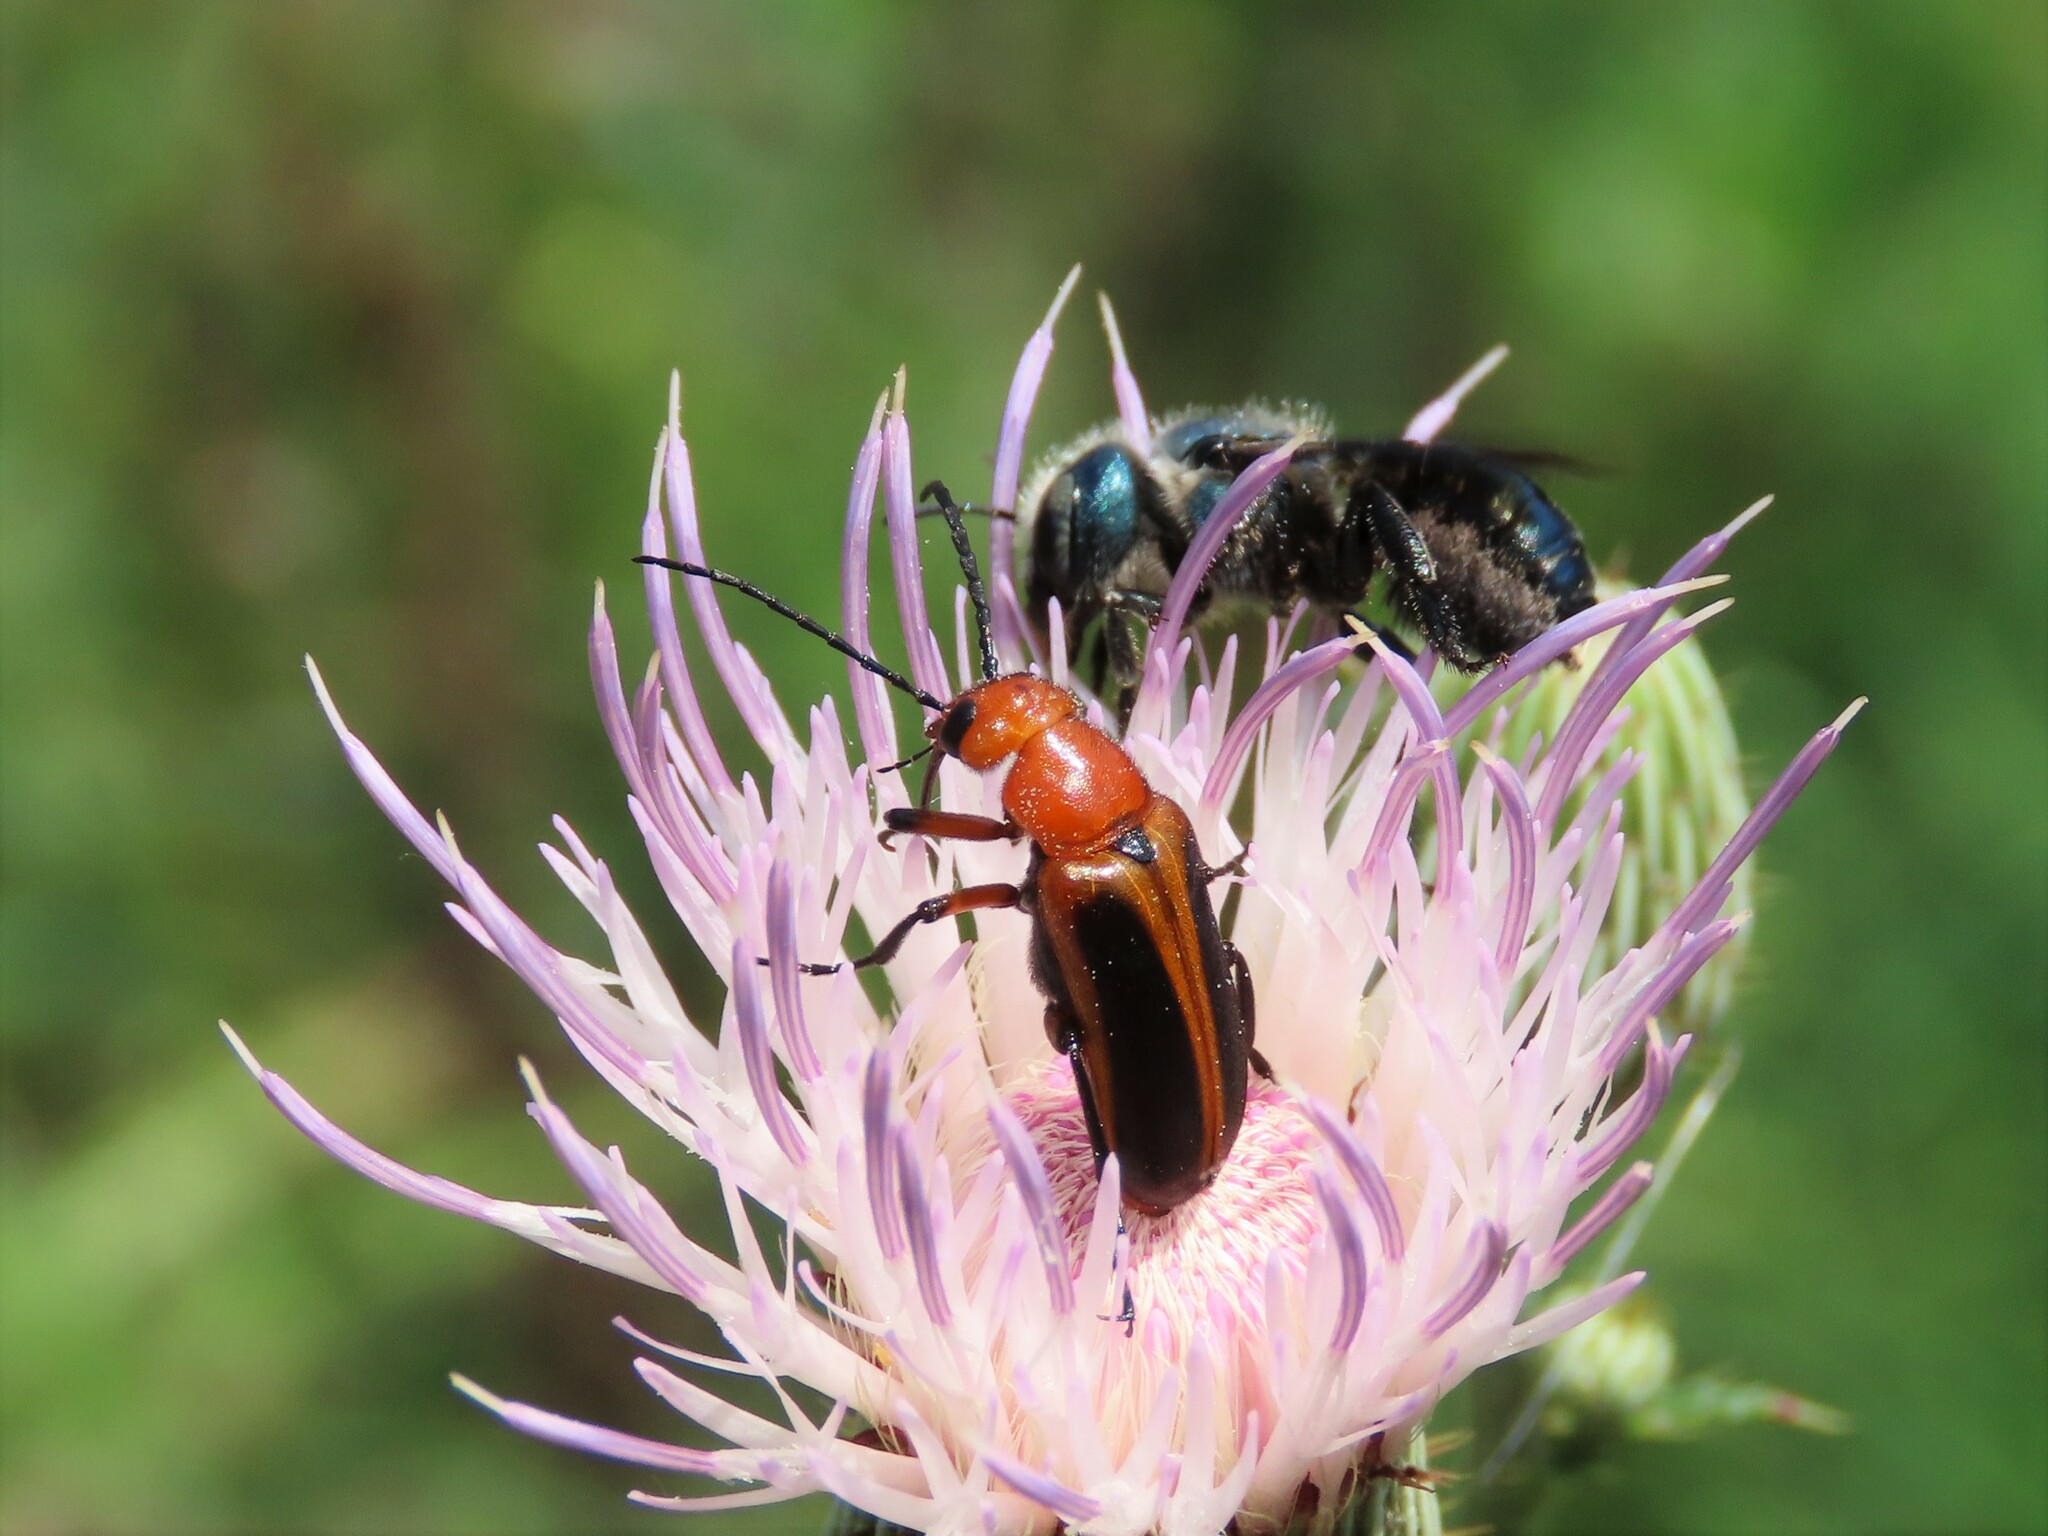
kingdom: Animalia
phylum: Arthropoda
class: Insecta
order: Hymenoptera
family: Megachilidae
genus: Osmia
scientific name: Osmia chalybea
